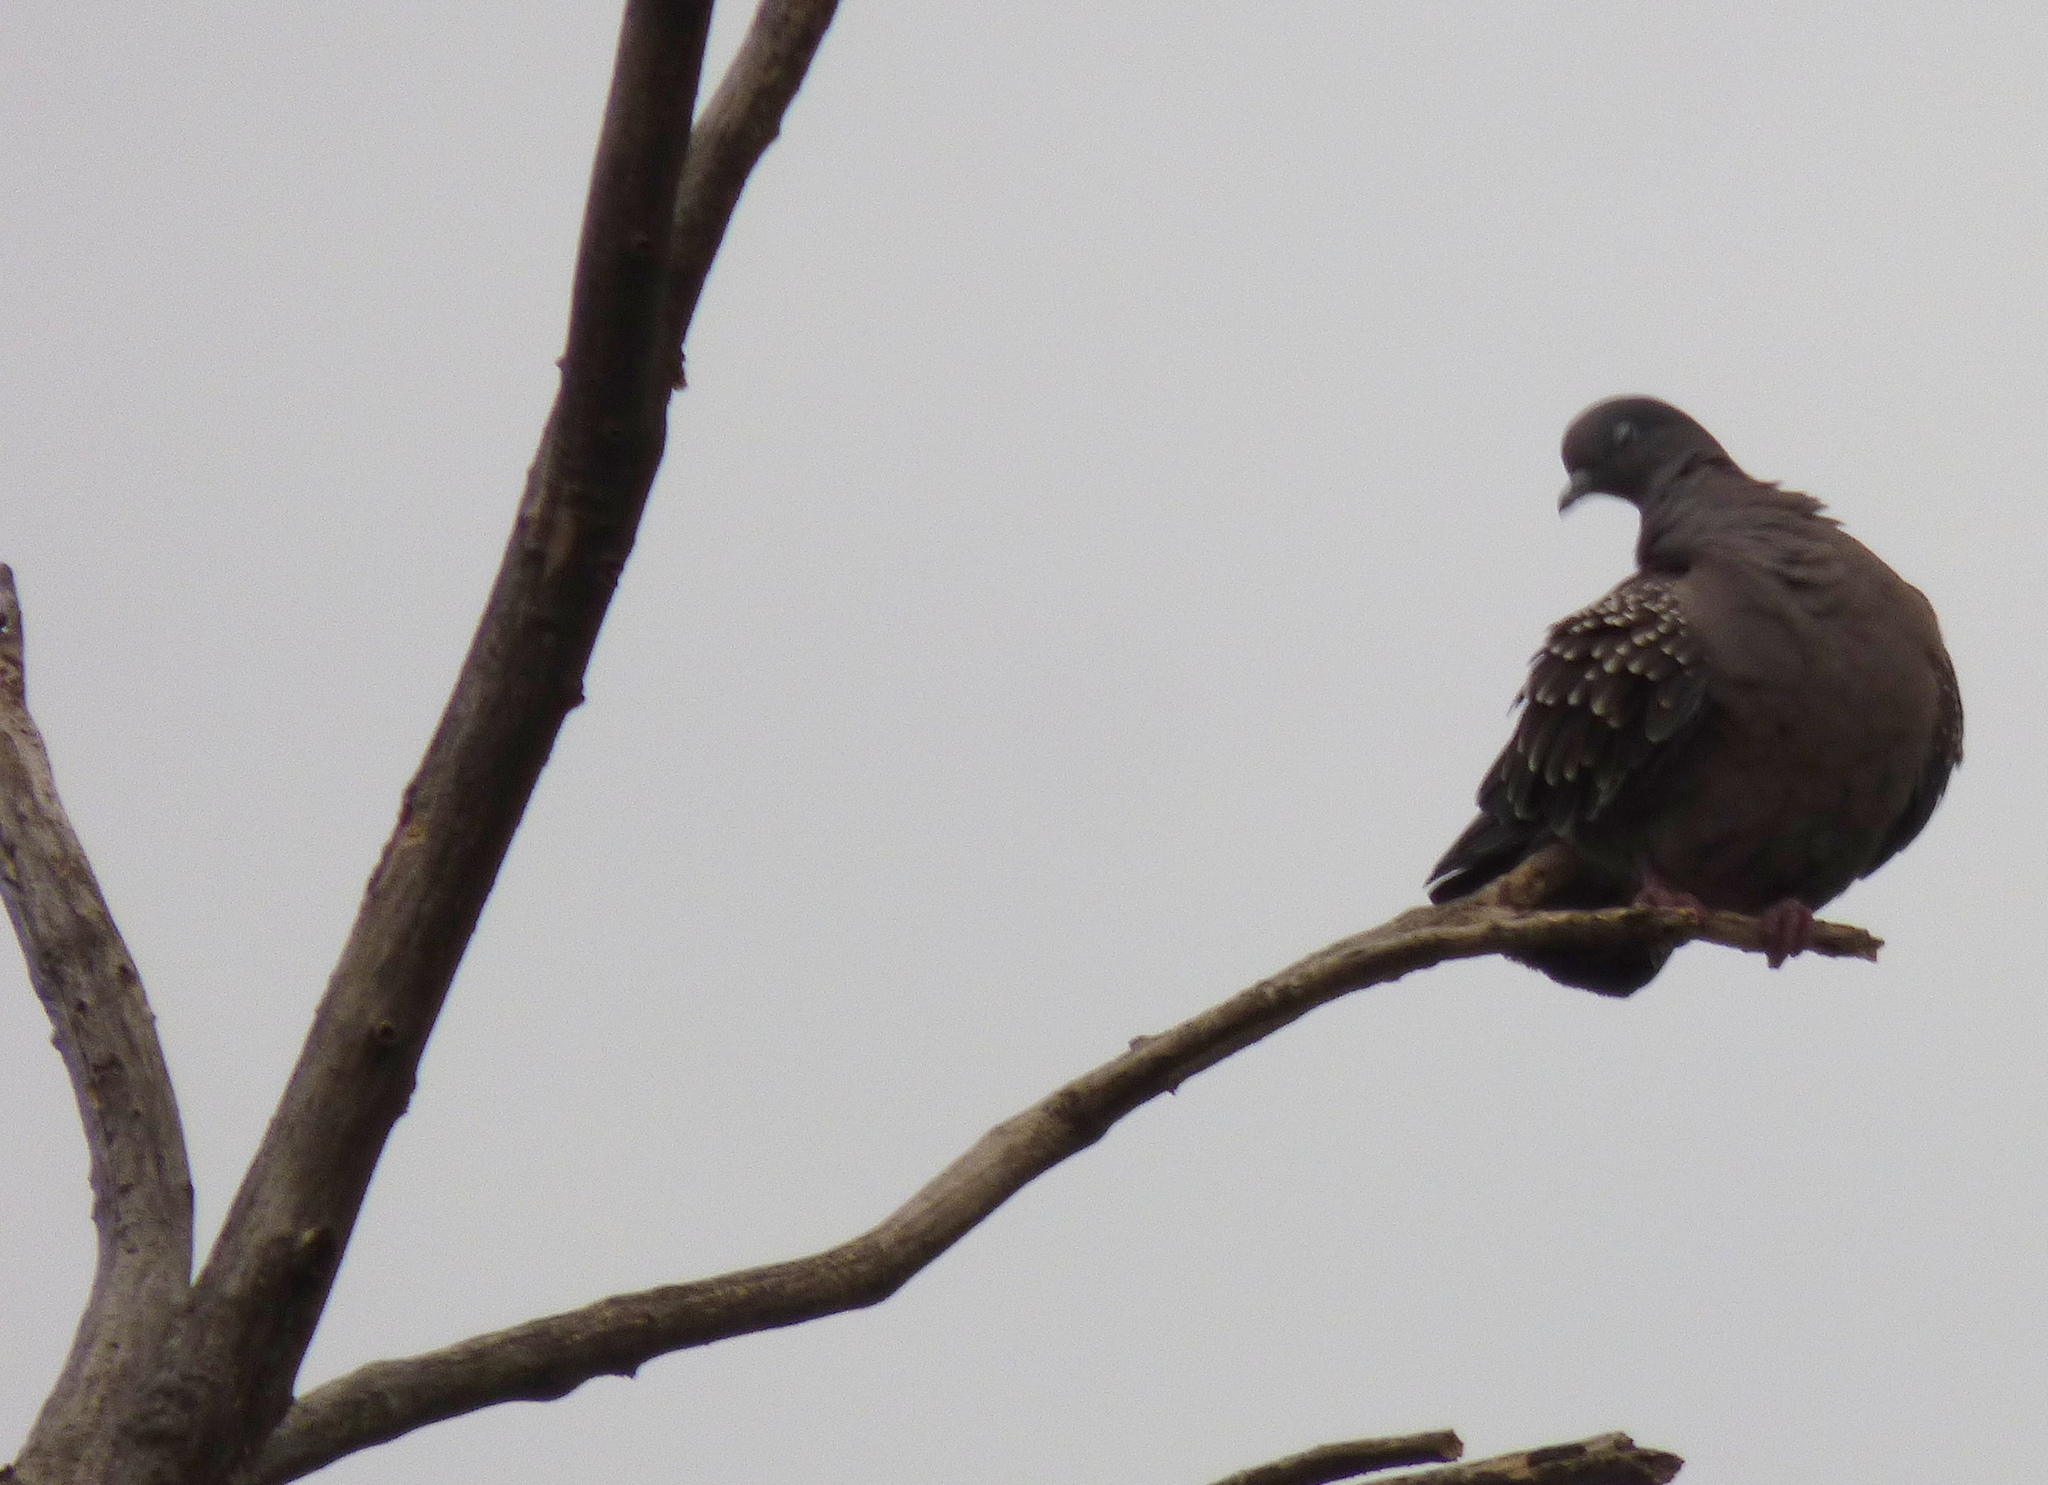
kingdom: Animalia
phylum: Chordata
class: Aves
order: Columbiformes
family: Columbidae
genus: Patagioenas
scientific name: Patagioenas maculosa
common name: Spot-winged pigeon
